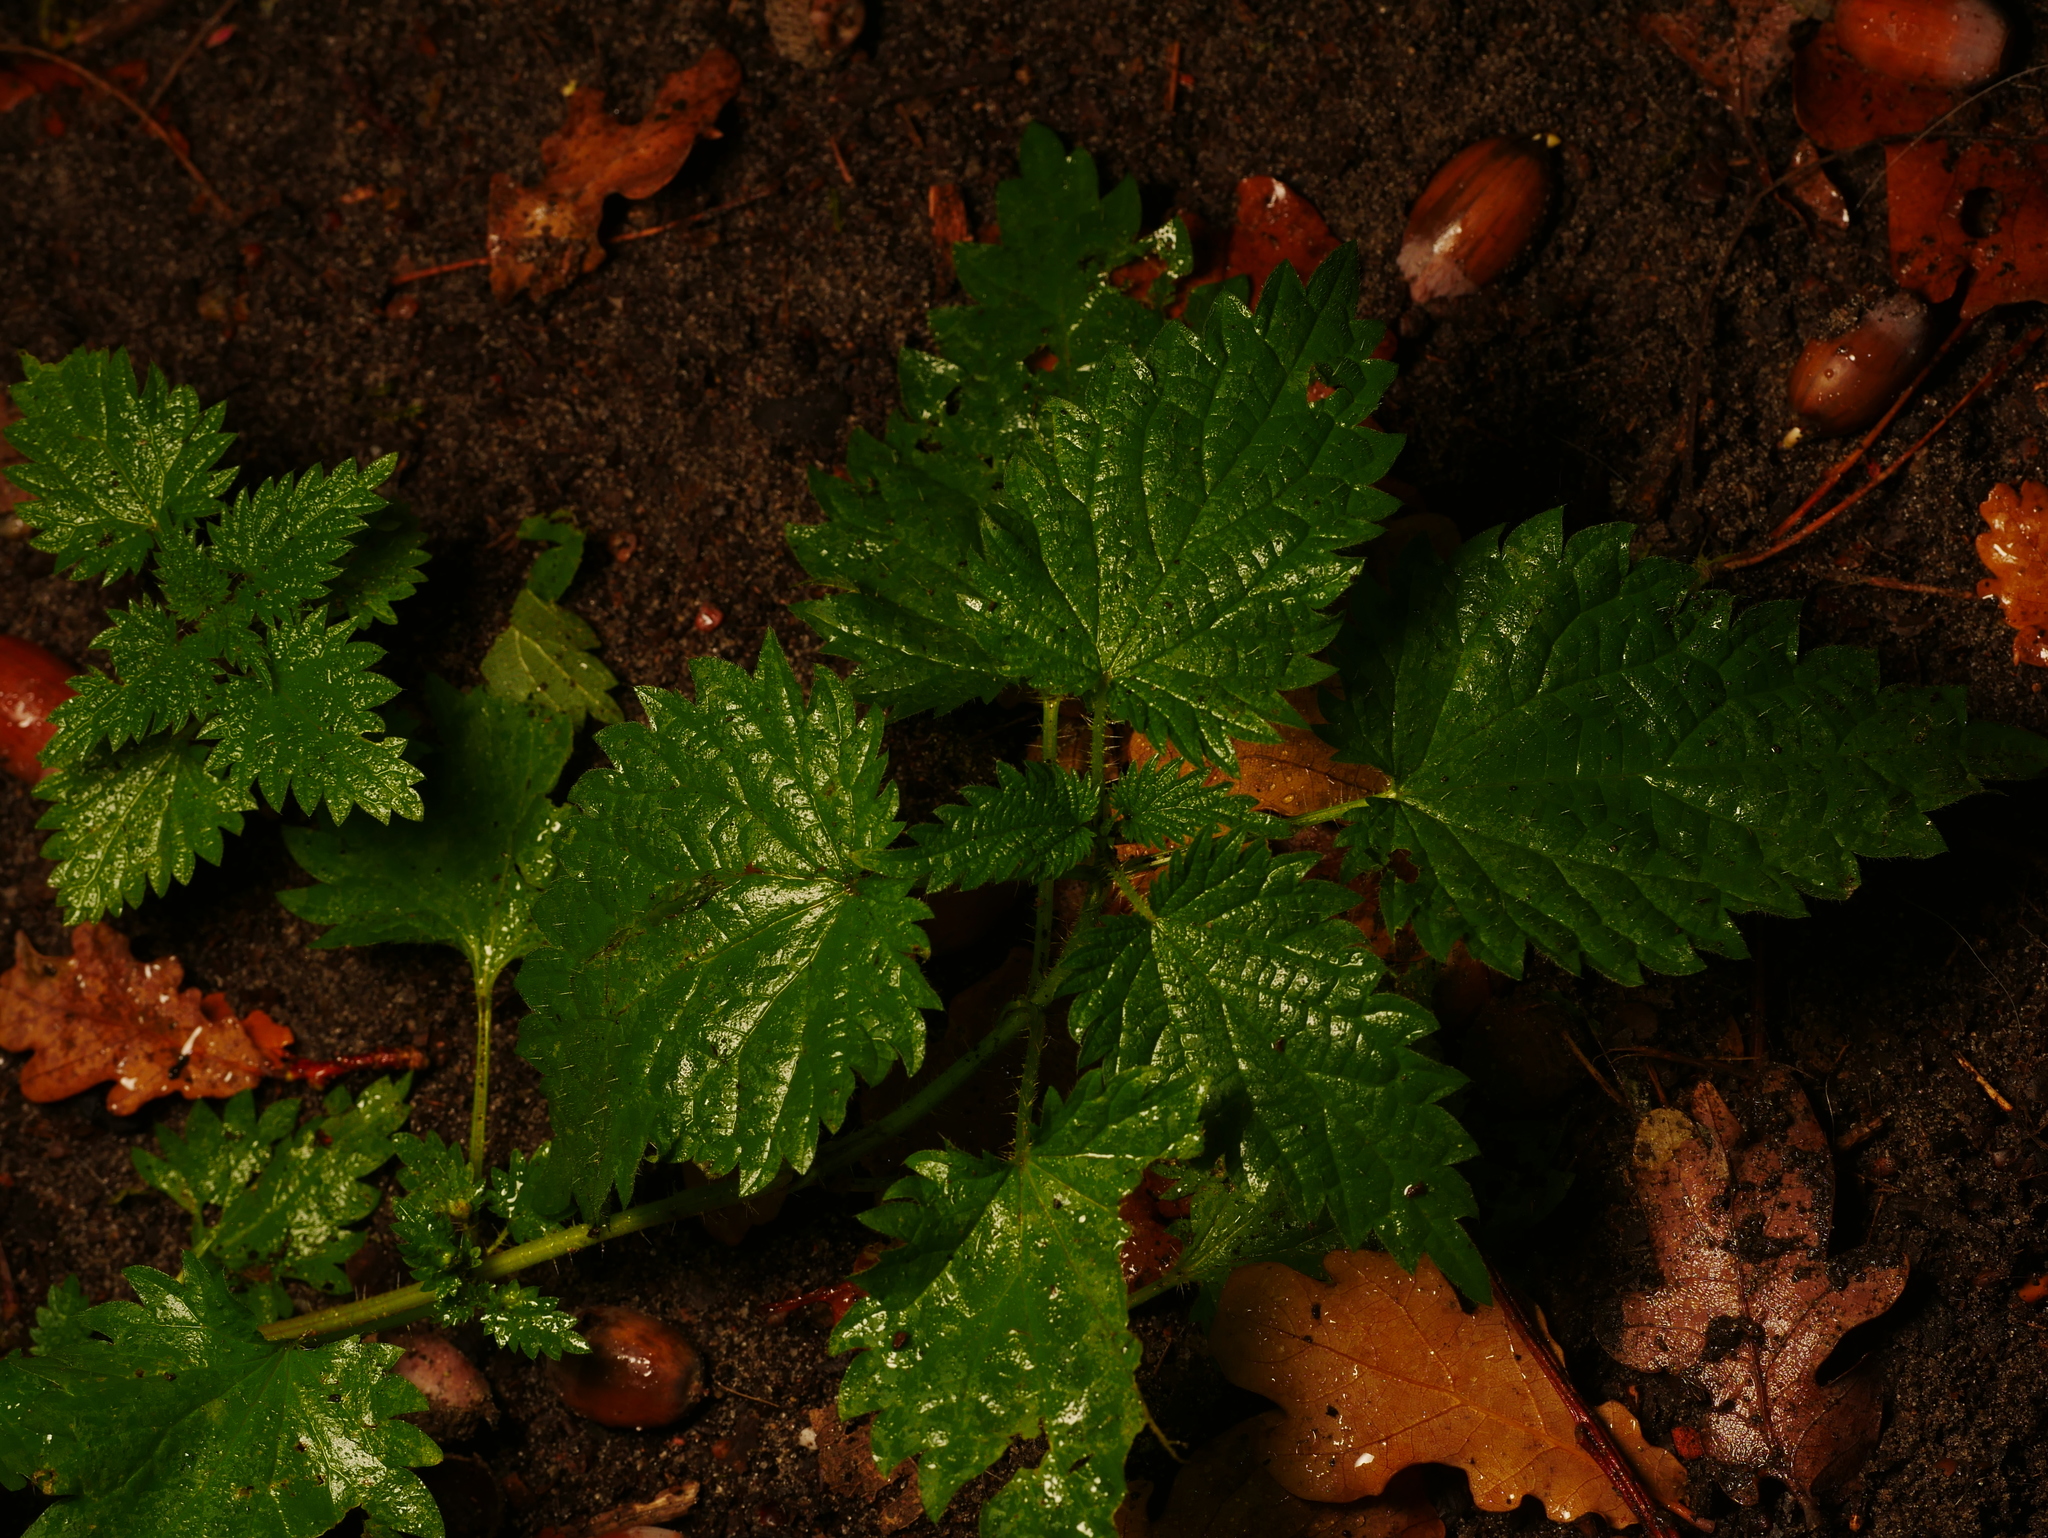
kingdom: Plantae
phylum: Tracheophyta
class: Magnoliopsida
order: Rosales
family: Urticaceae
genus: Urtica
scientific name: Urtica dioica
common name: Common nettle
